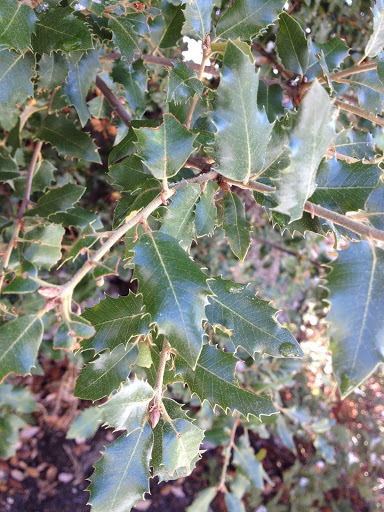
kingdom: Plantae
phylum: Tracheophyta
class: Magnoliopsida
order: Fagales
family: Fagaceae
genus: Quercus
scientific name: Quercus chrysolepis
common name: Canyon live oak
